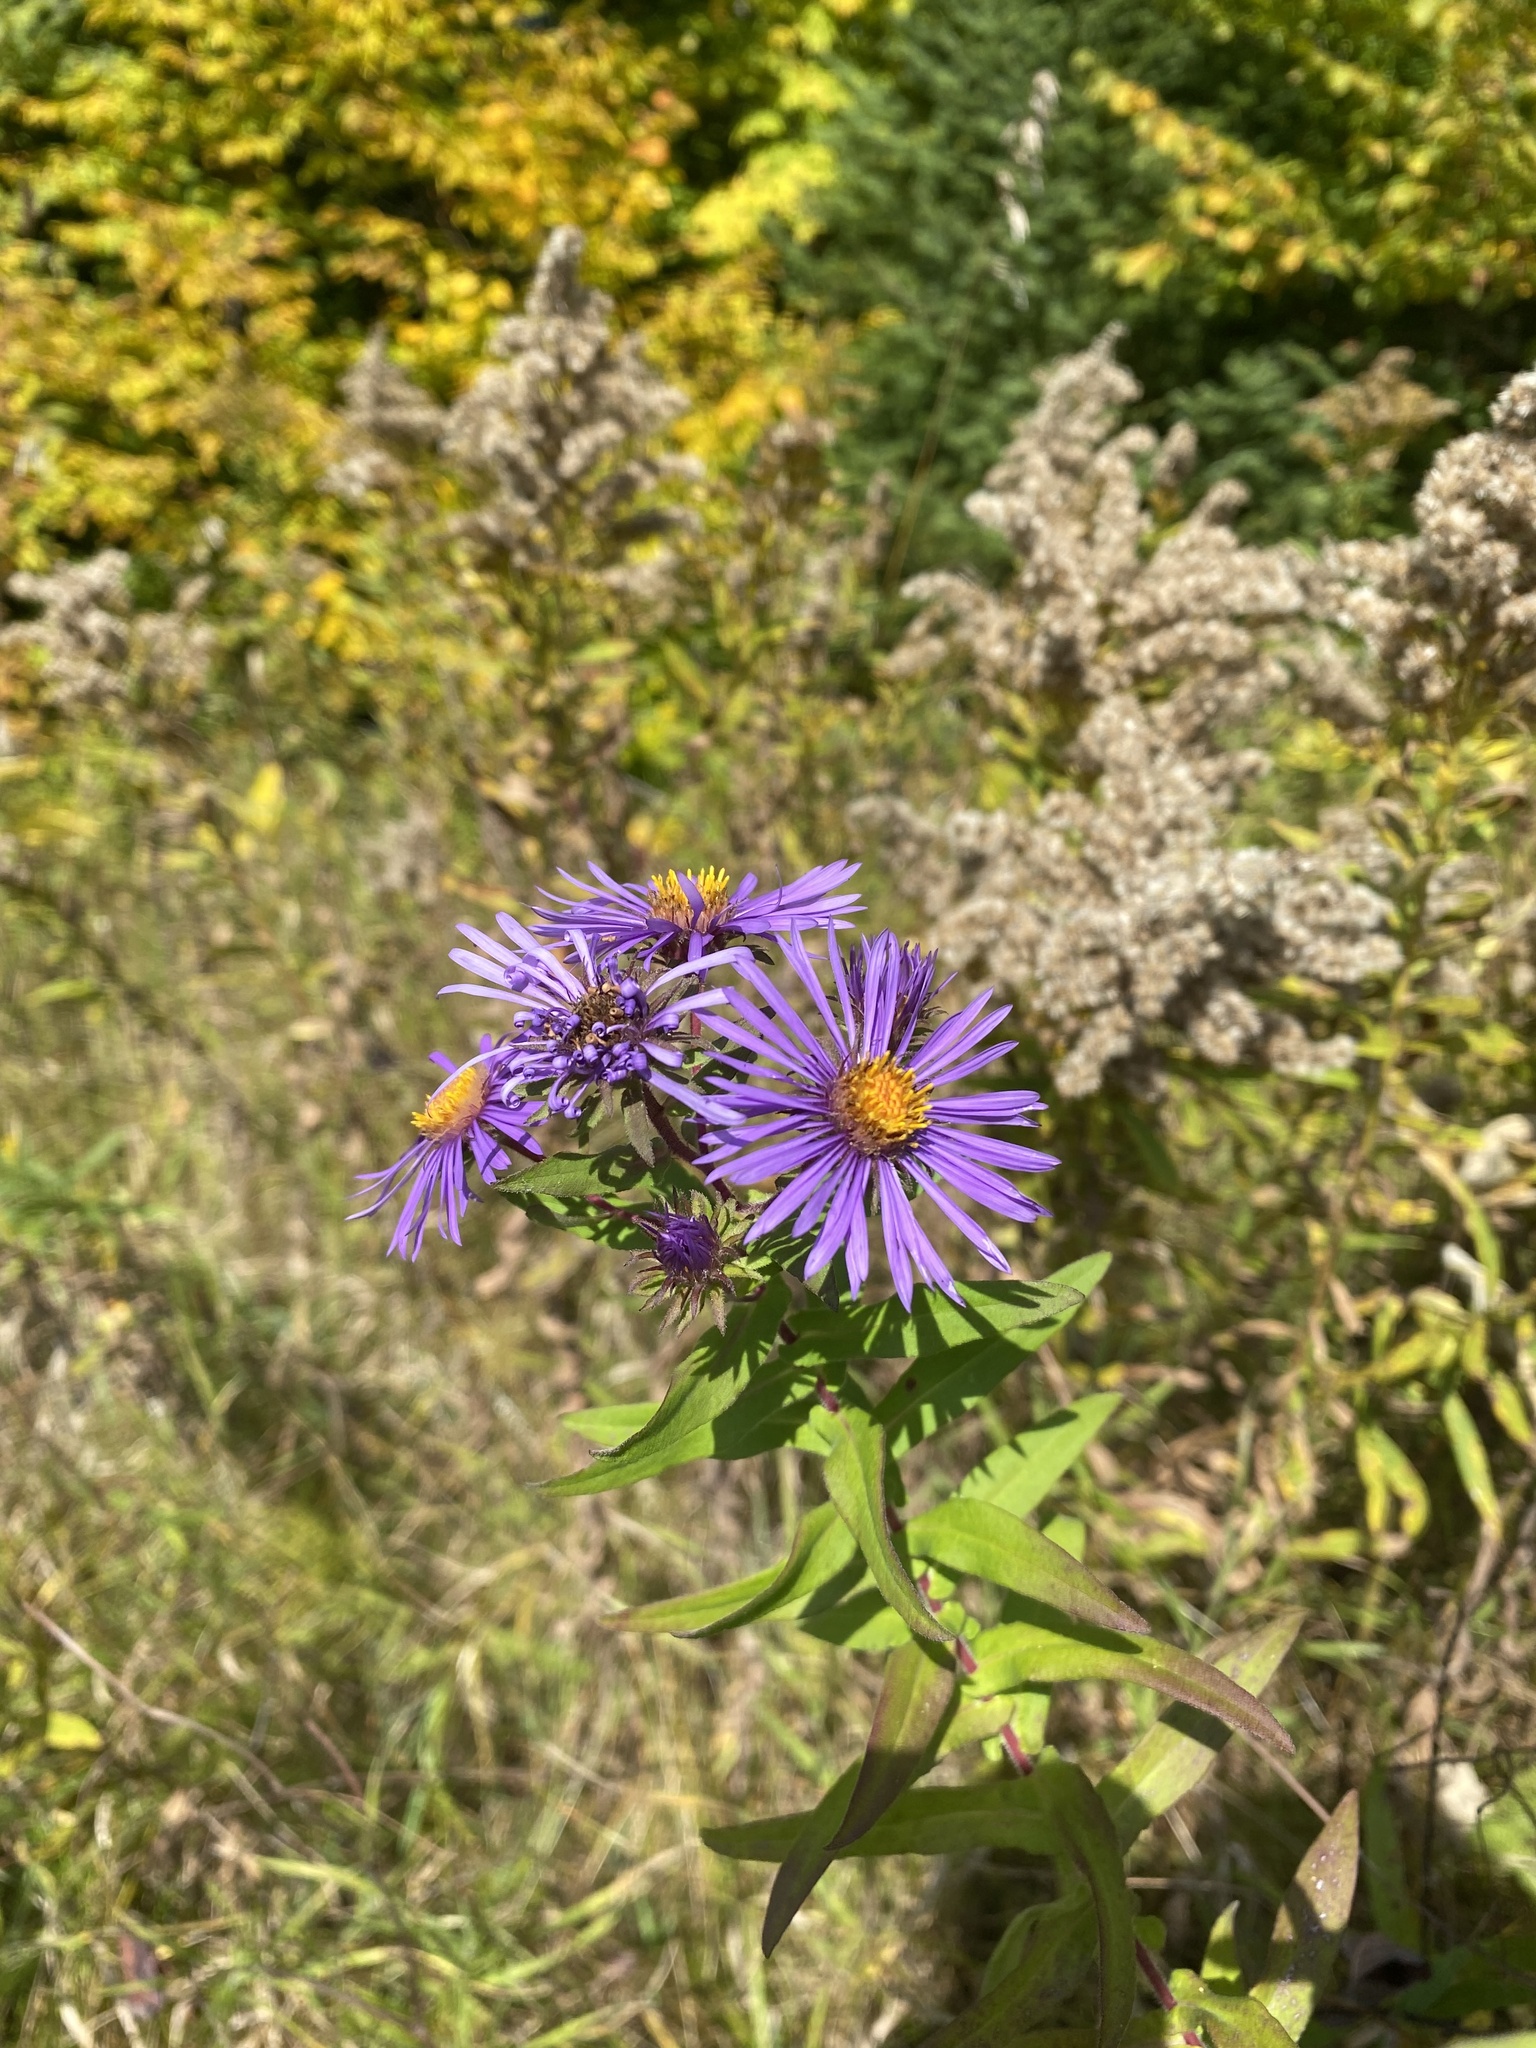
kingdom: Plantae
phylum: Tracheophyta
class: Magnoliopsida
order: Asterales
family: Asteraceae
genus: Symphyotrichum
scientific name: Symphyotrichum novae-angliae
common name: Michaelmas daisy
